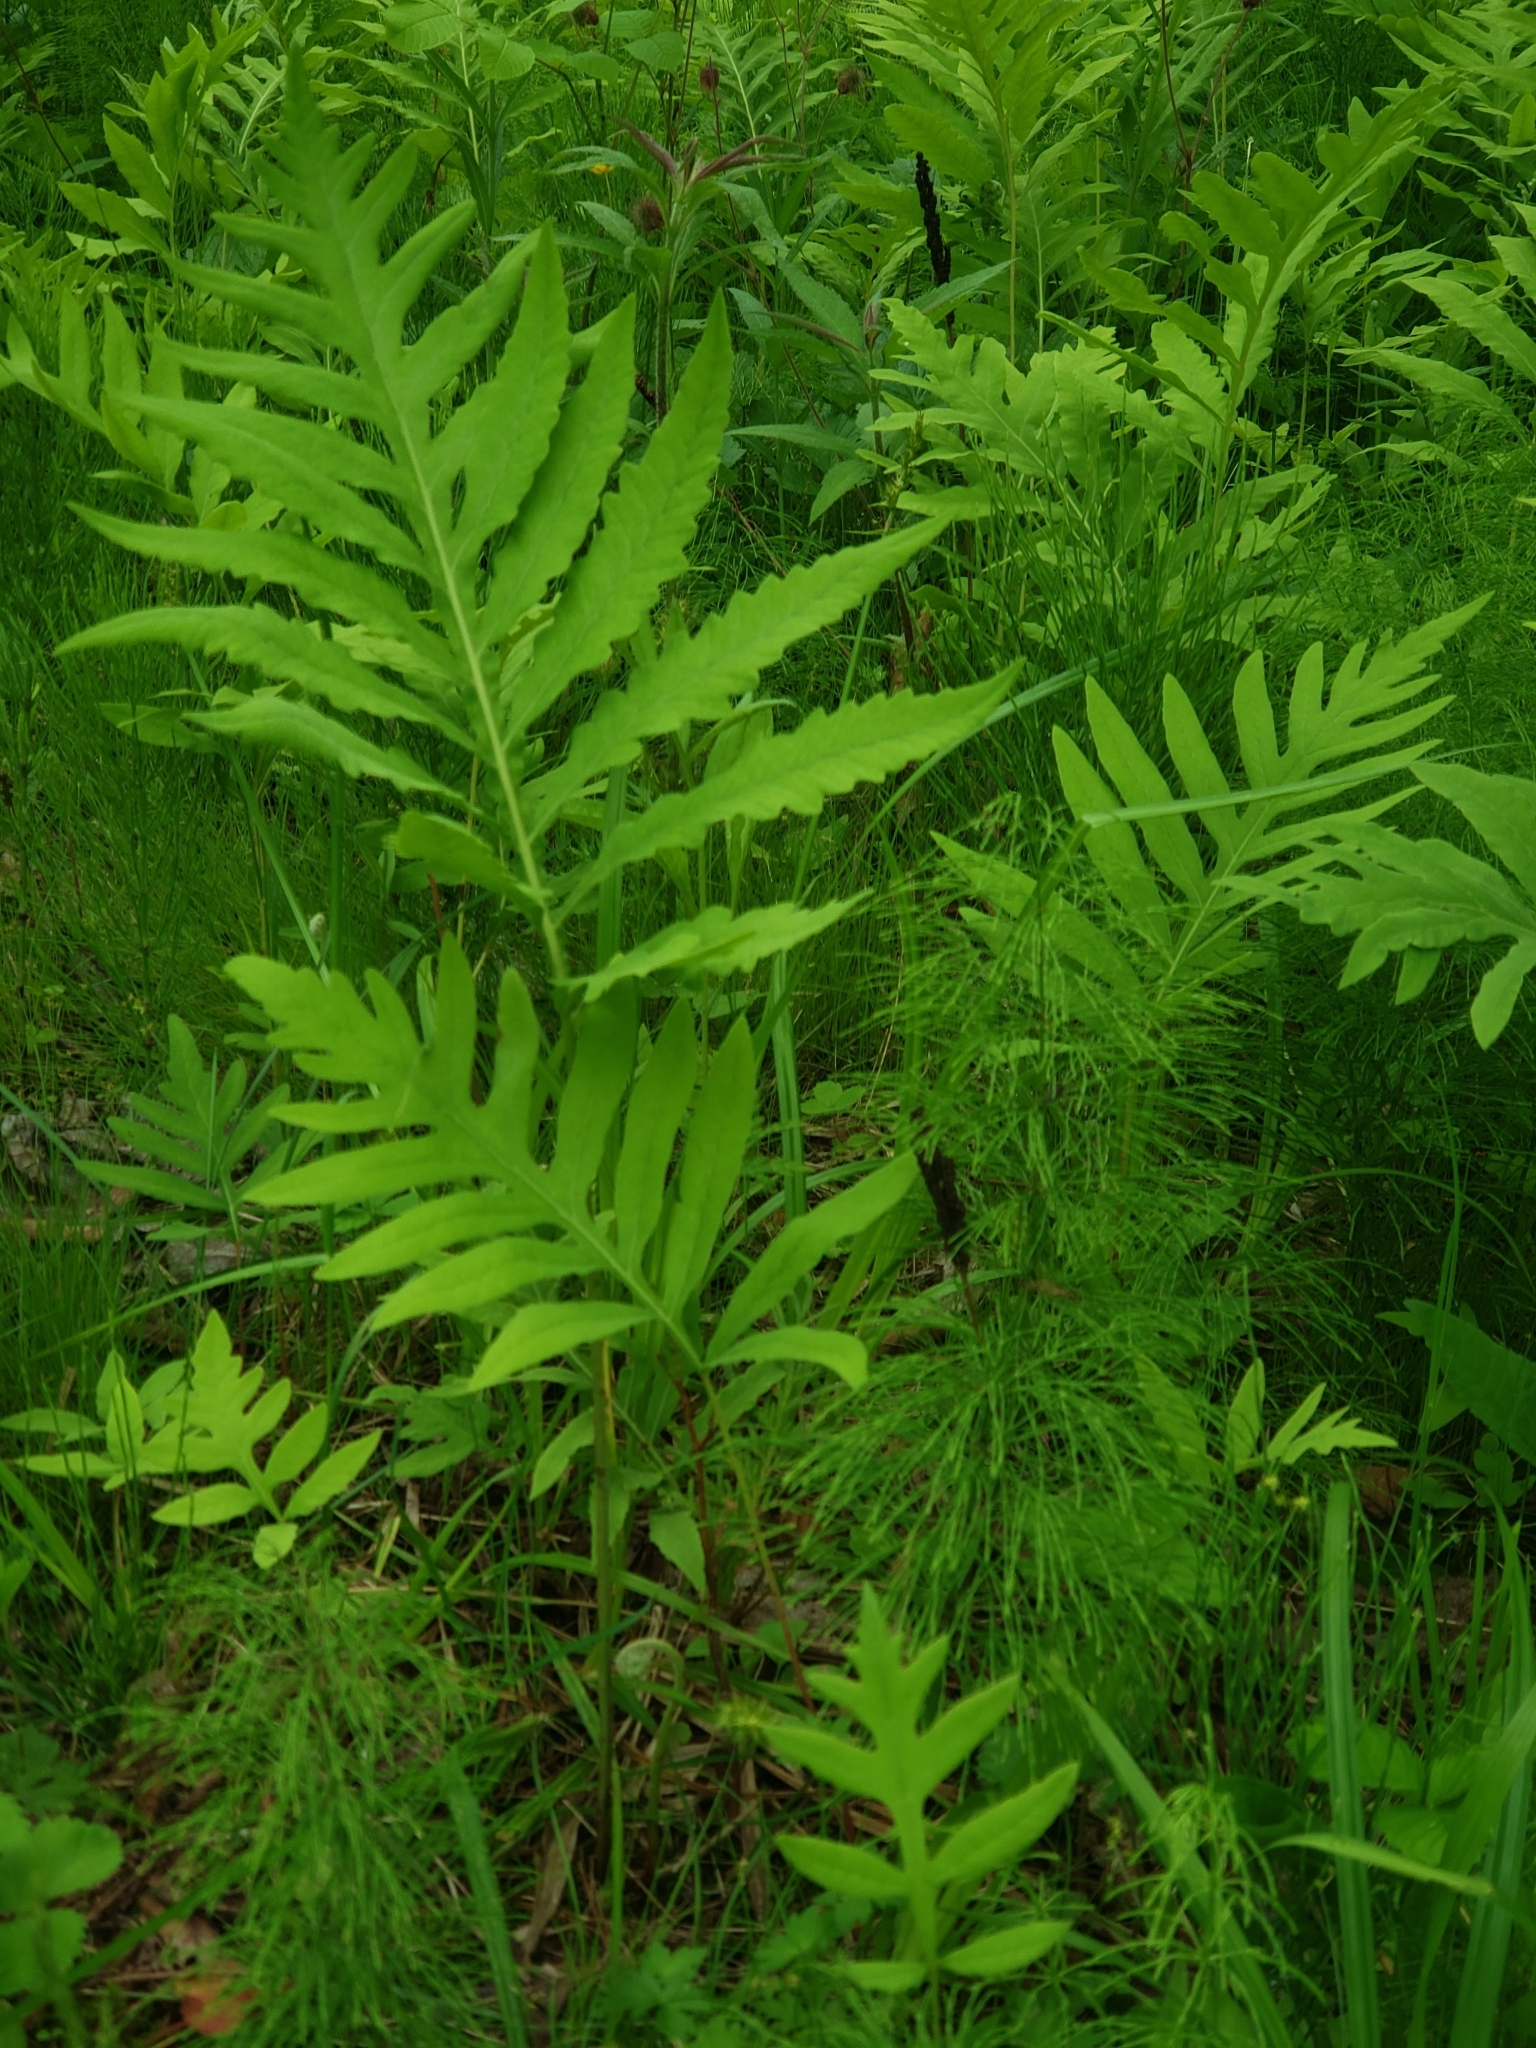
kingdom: Plantae
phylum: Tracheophyta
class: Polypodiopsida
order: Polypodiales
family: Onocleaceae
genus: Onoclea
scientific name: Onoclea sensibilis
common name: Sensitive fern
